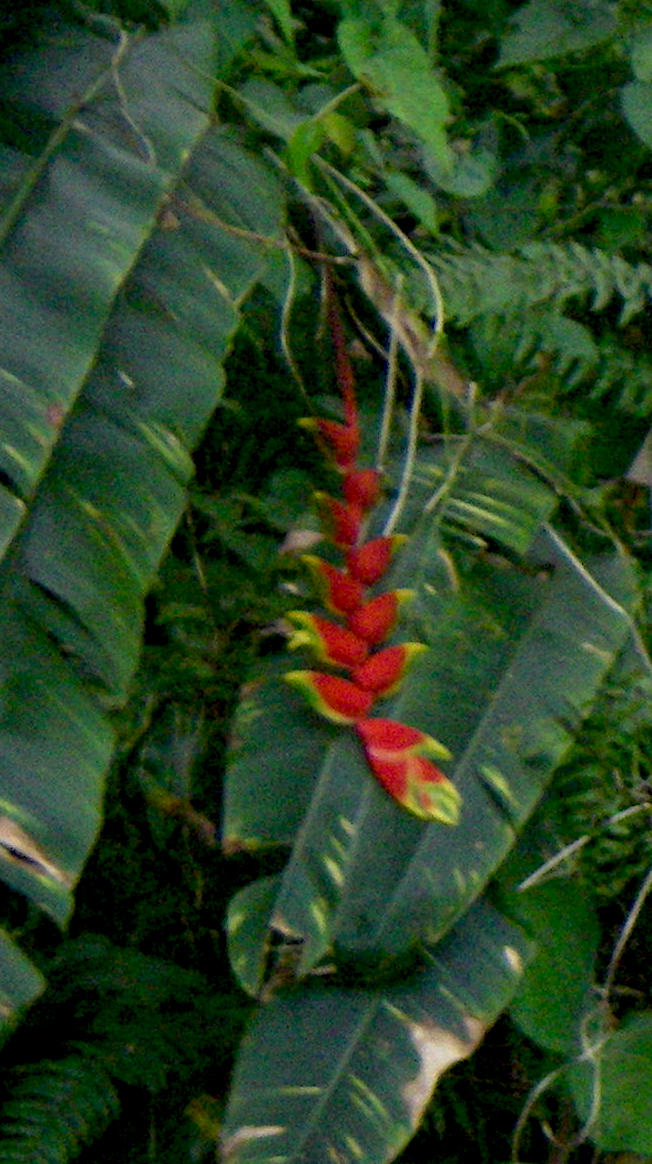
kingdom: Plantae
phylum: Tracheophyta
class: Liliopsida
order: Zingiberales
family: Heliconiaceae
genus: Heliconia
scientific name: Heliconia rostrata
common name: False bird of paradise
